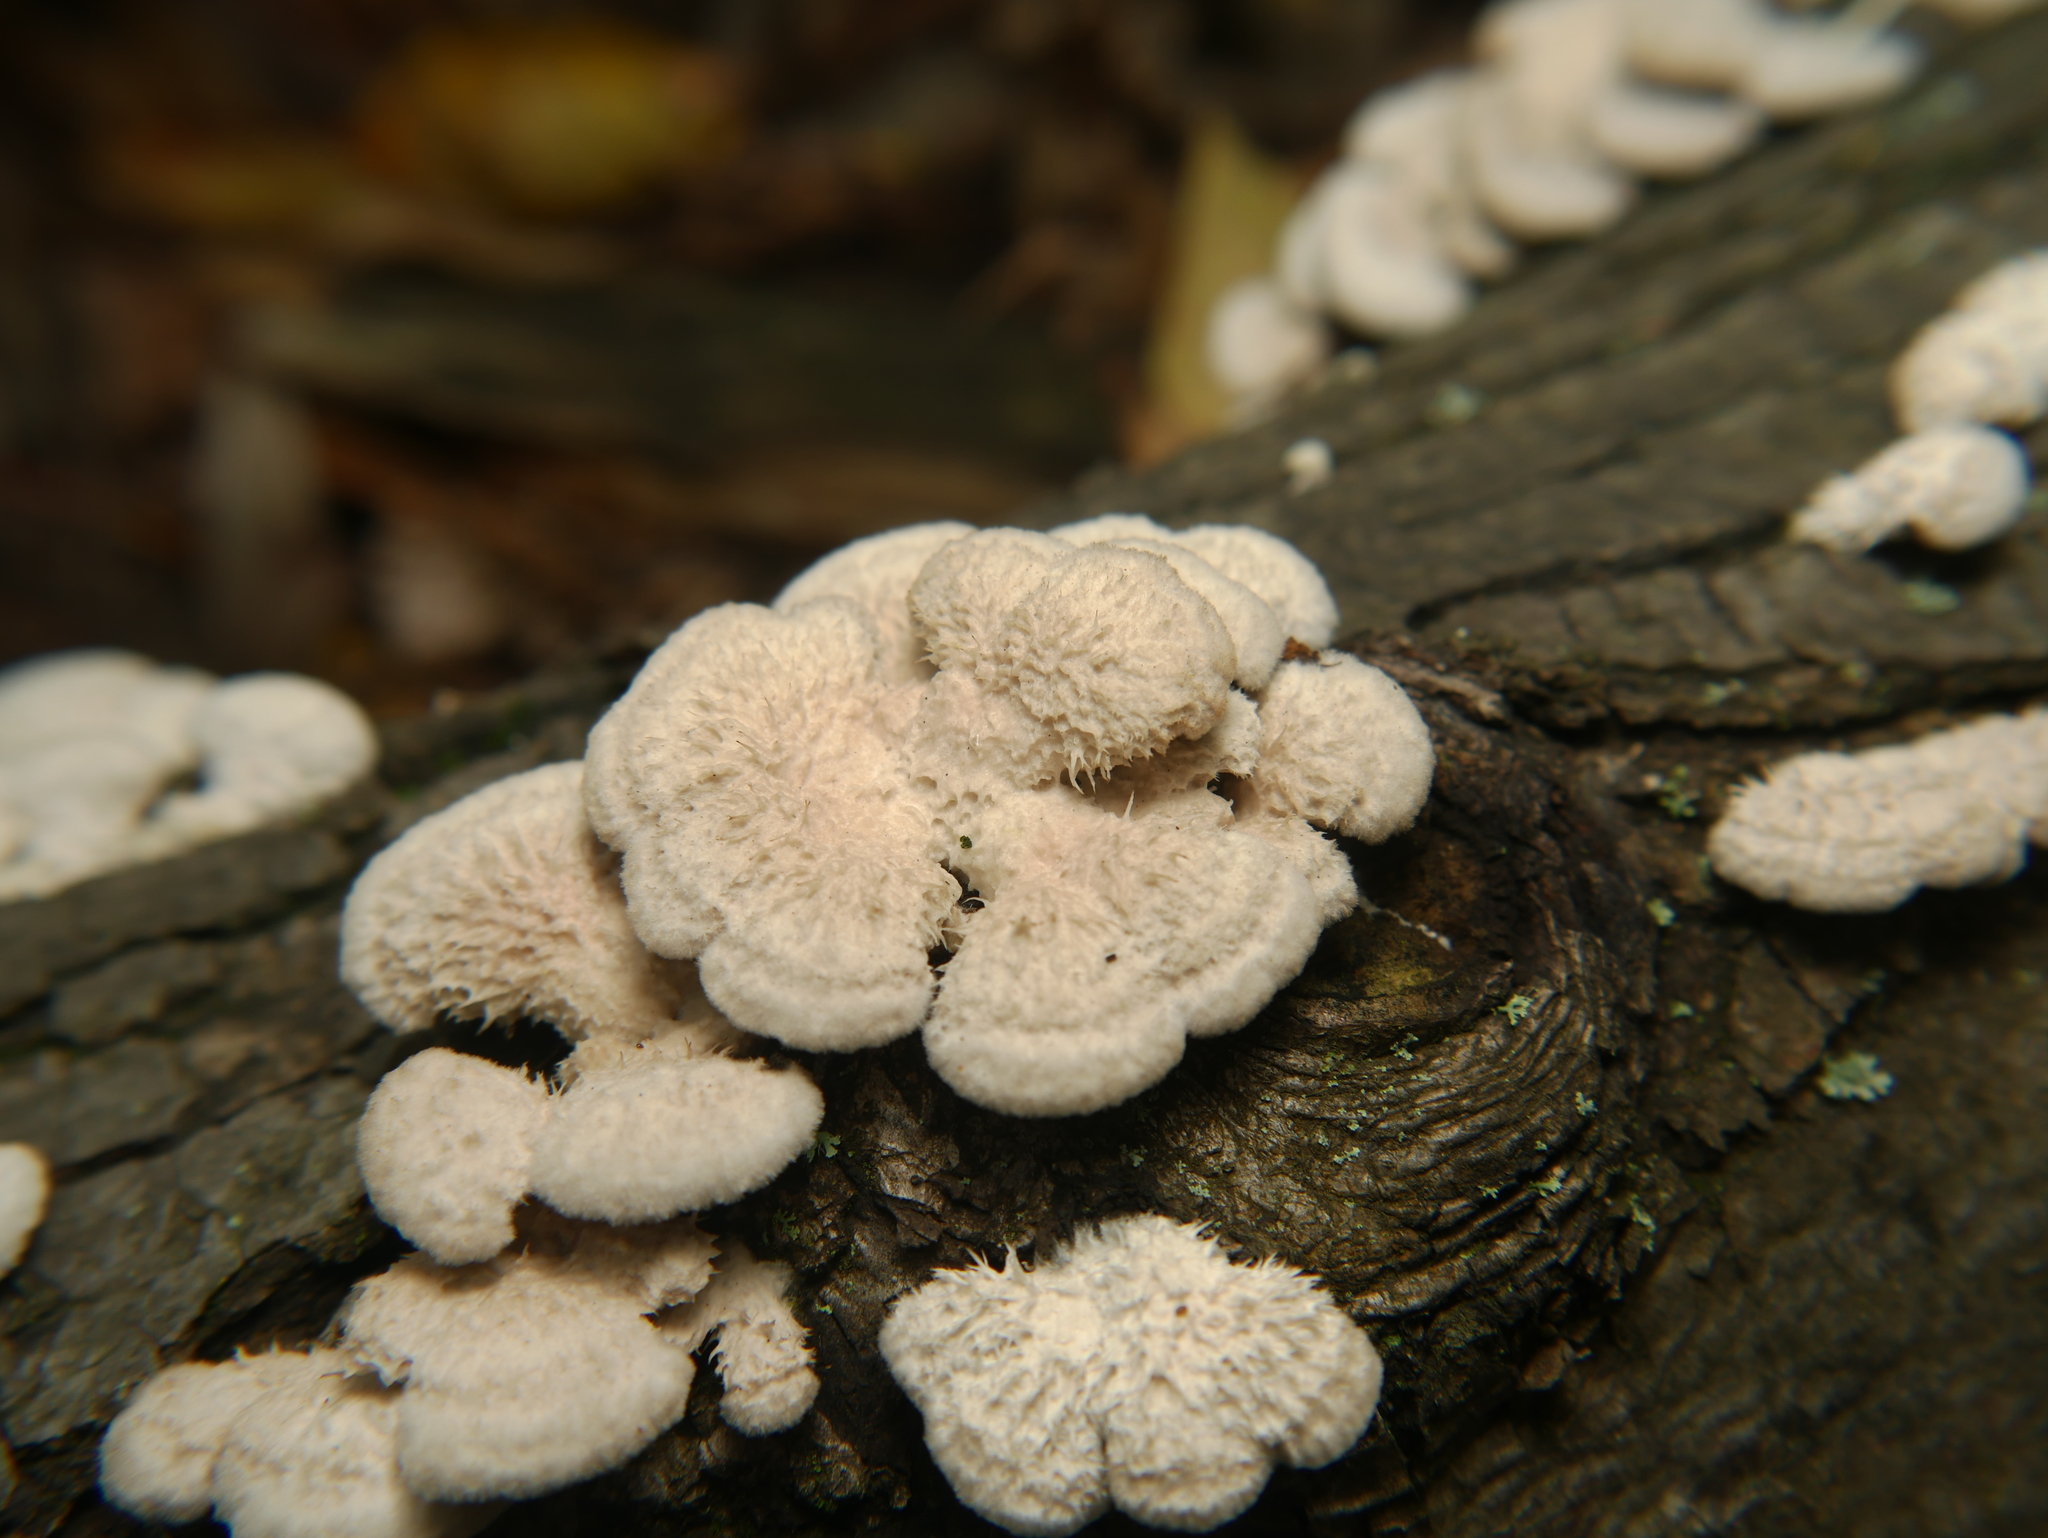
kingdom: Fungi
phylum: Basidiomycota
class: Agaricomycetes
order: Agaricales
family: Schizophyllaceae
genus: Schizophyllum
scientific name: Schizophyllum commune
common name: Common porecrust
